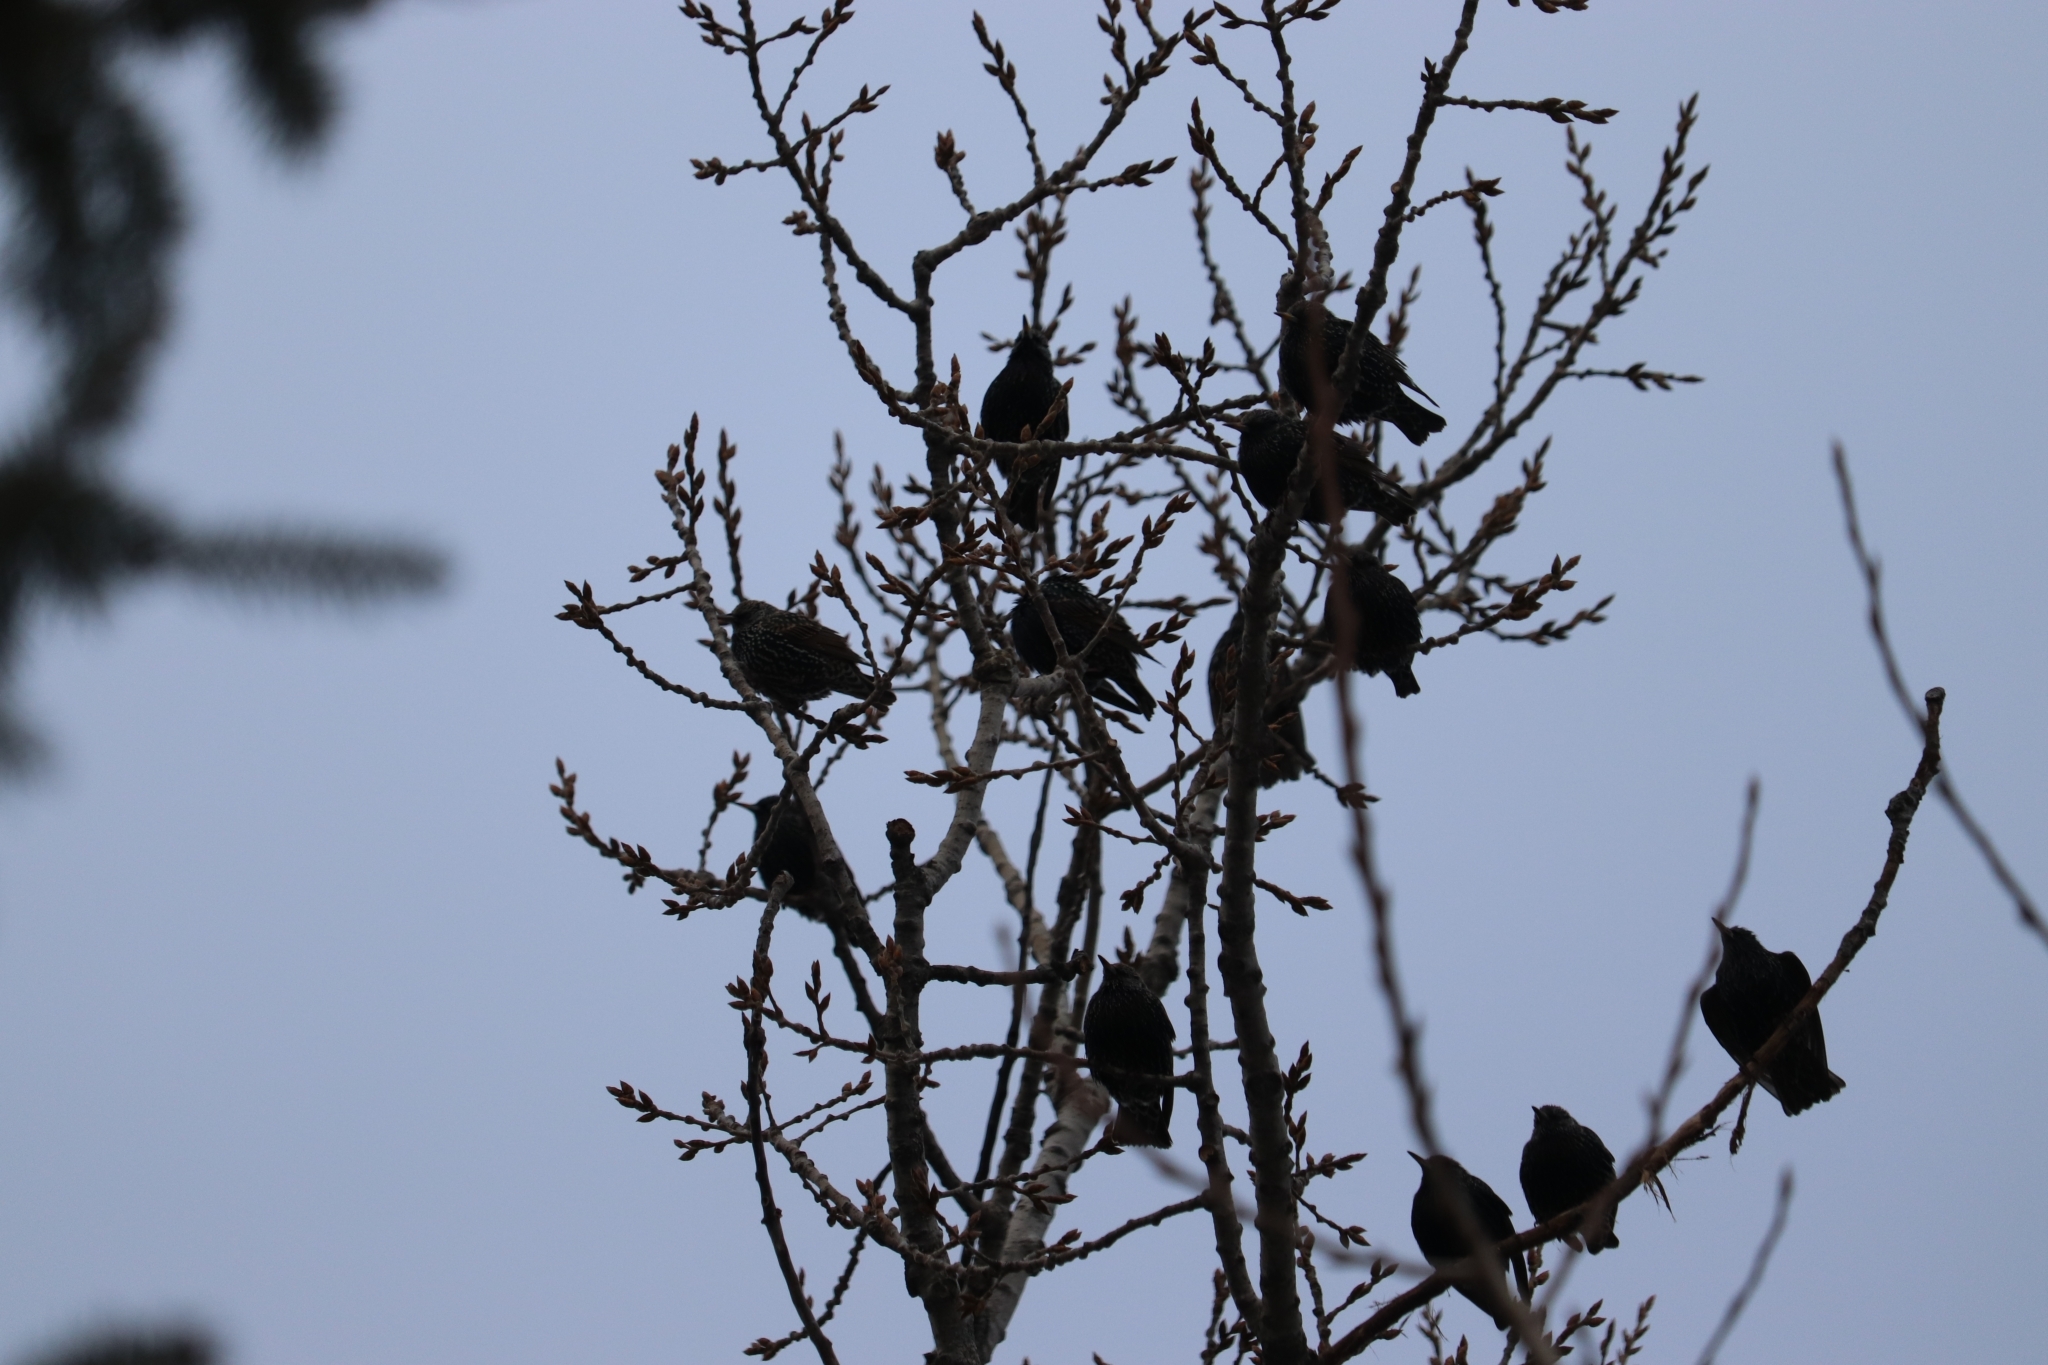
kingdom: Animalia
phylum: Chordata
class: Aves
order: Passeriformes
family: Sturnidae
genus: Sturnus
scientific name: Sturnus vulgaris
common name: Common starling
